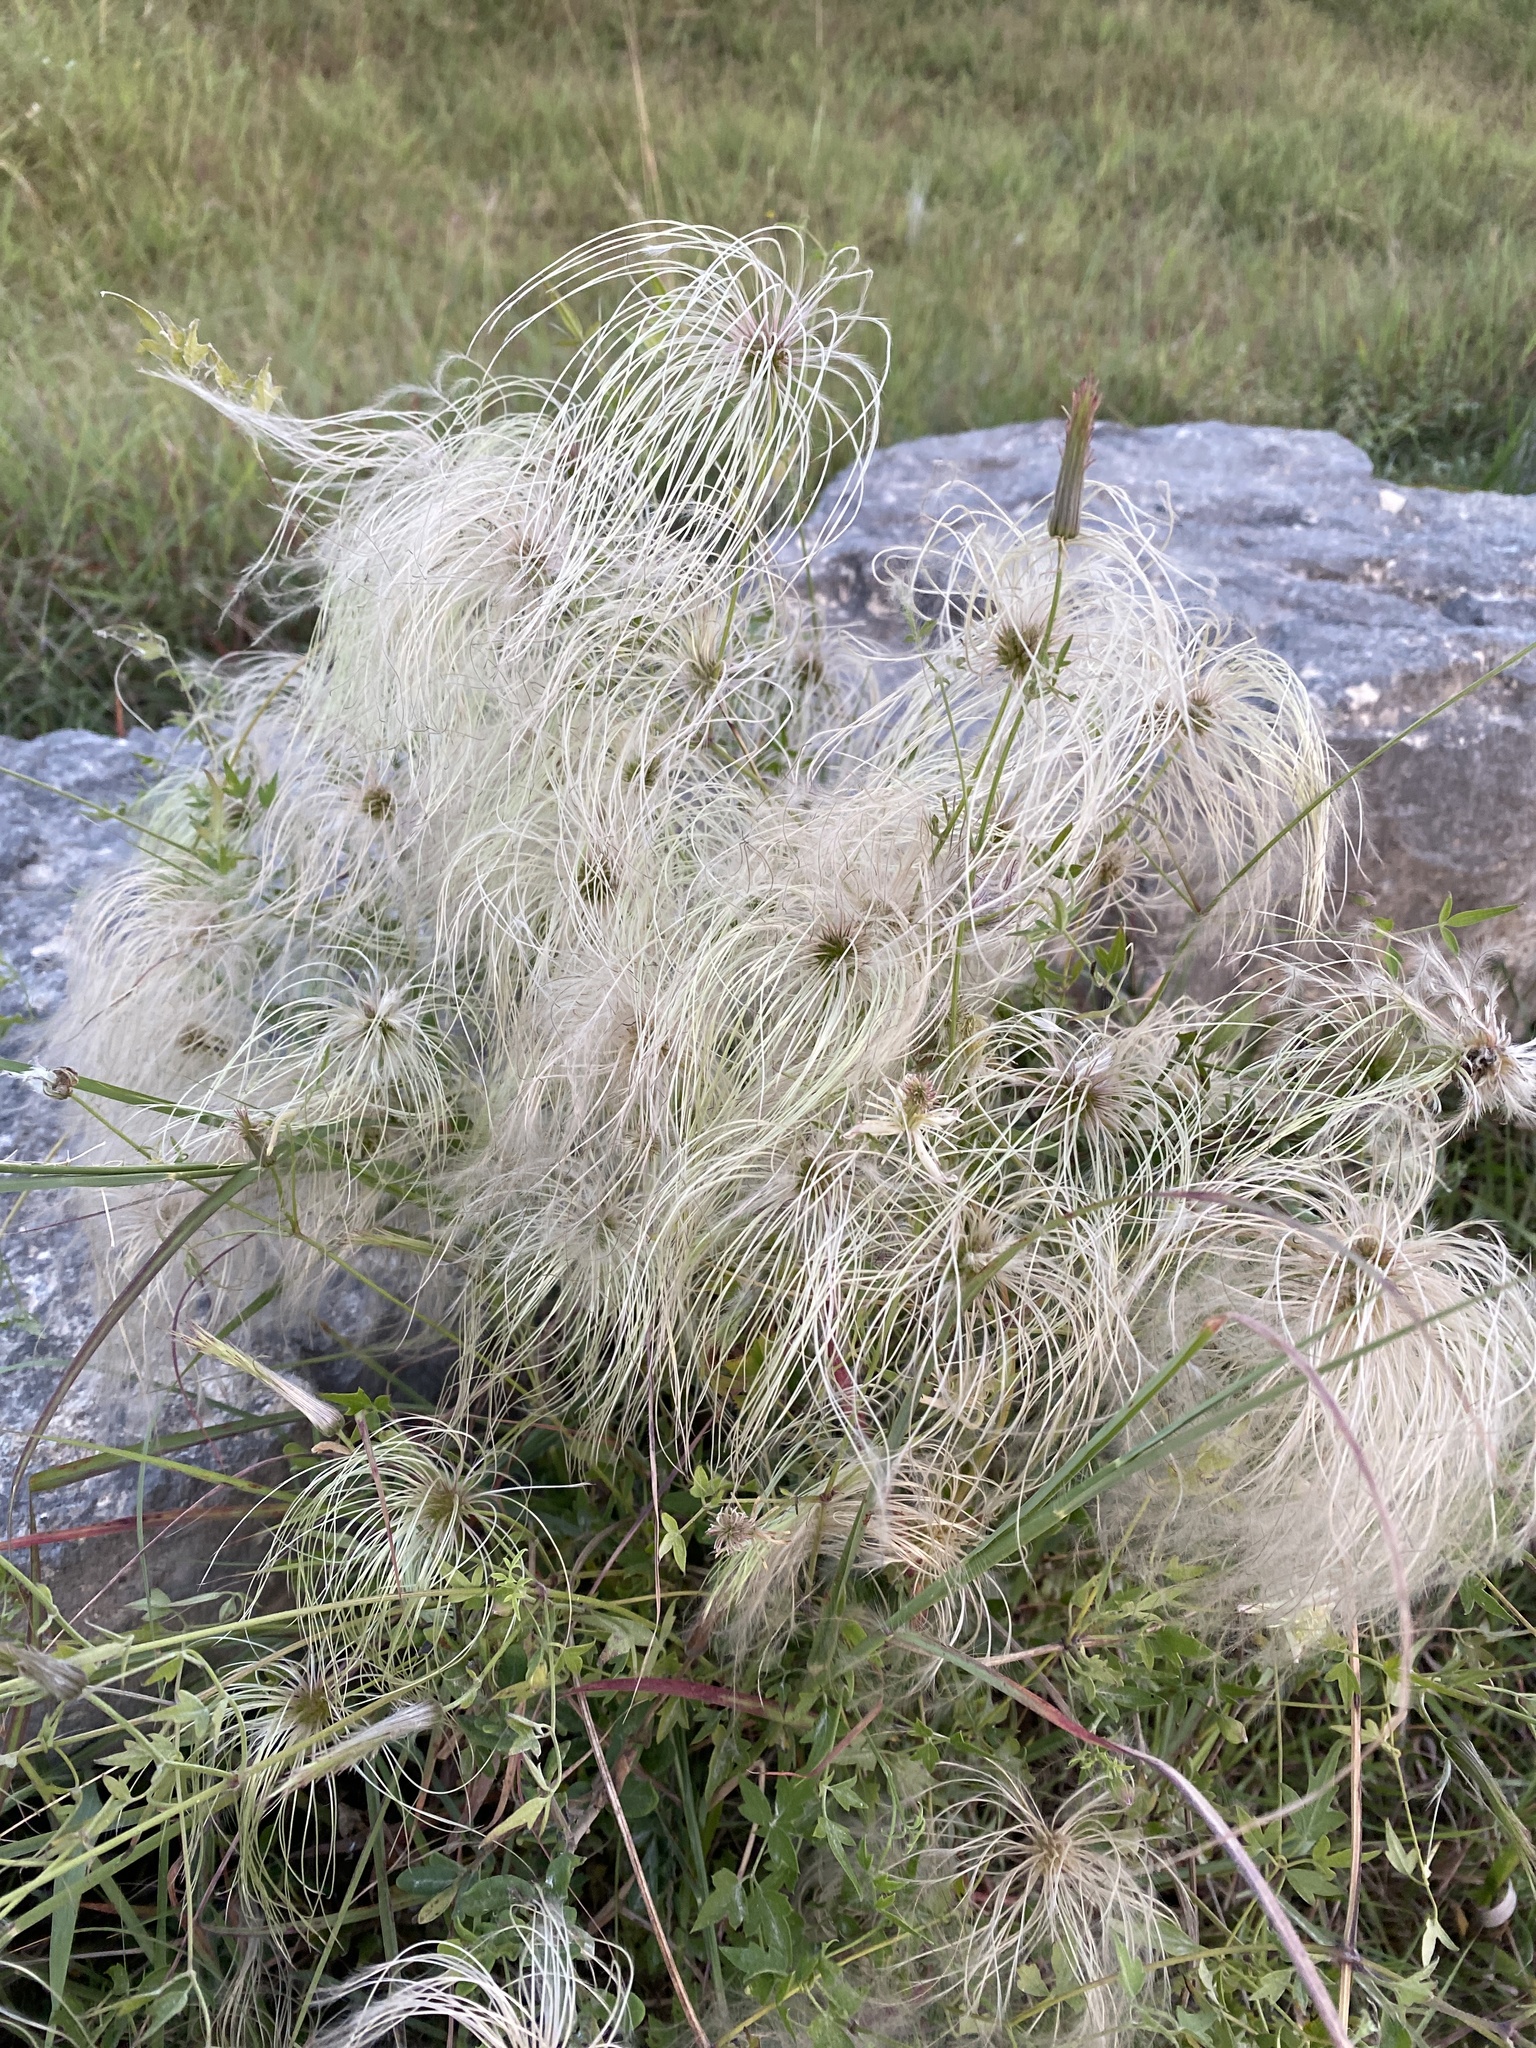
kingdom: Plantae
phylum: Tracheophyta
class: Magnoliopsida
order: Ranunculales
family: Ranunculaceae
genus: Clematis
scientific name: Clematis drummondii
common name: Texas virgin's bower
